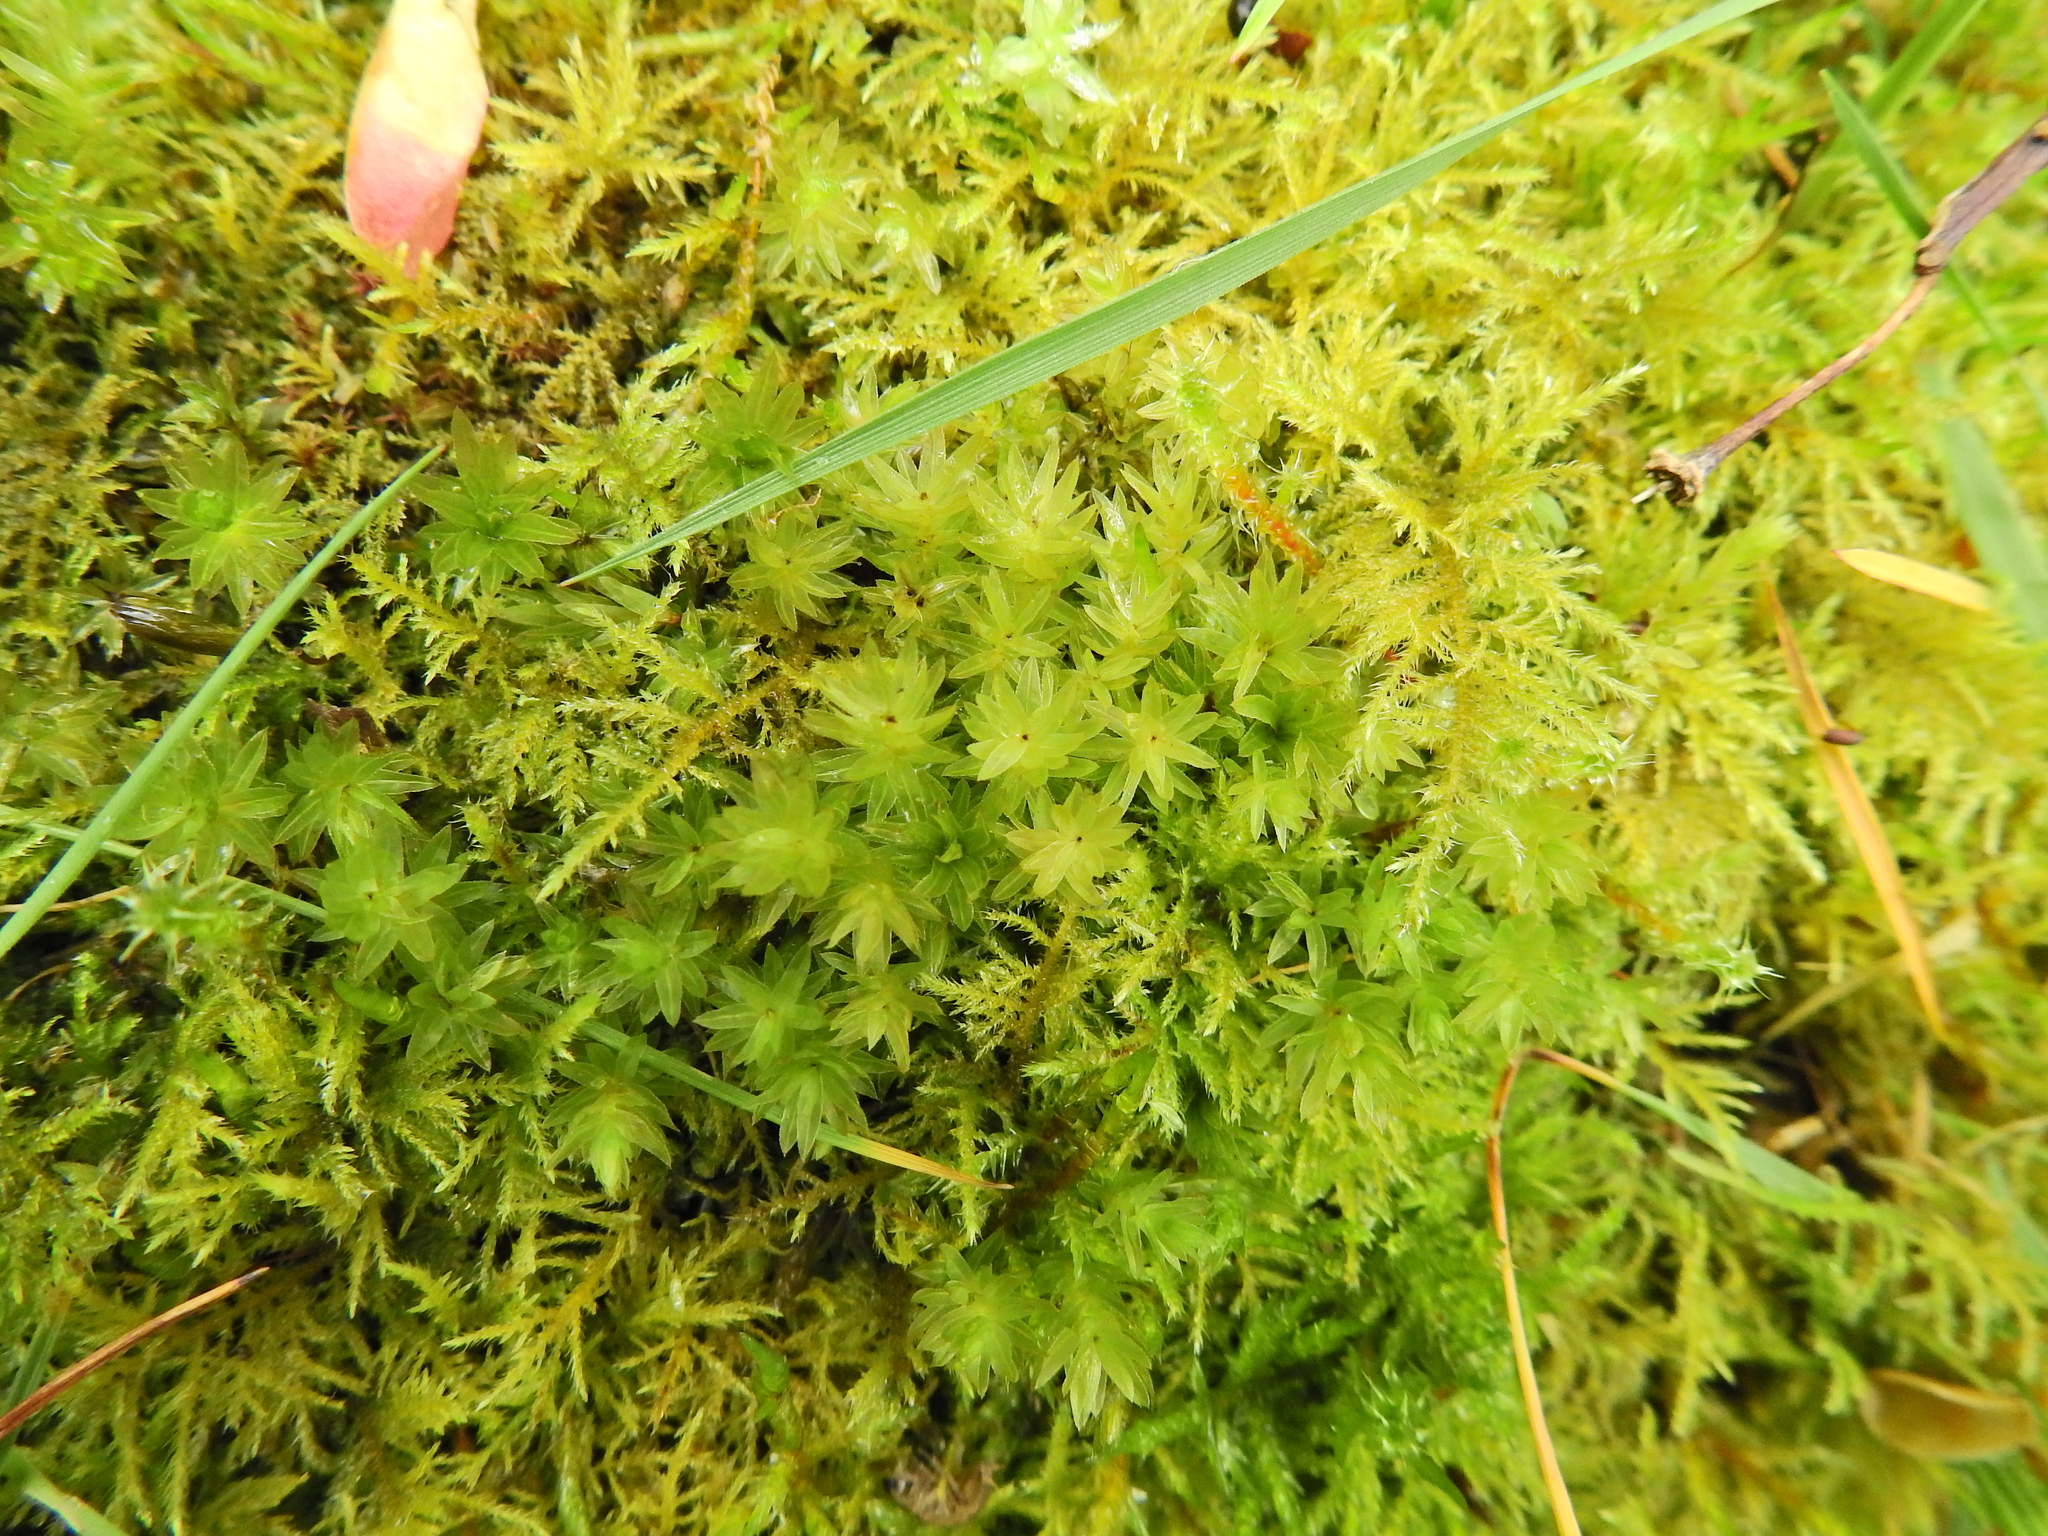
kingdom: Plantae
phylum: Bryophyta
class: Bryopsida
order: Bryales
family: Mniaceae
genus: Mnium
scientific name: Mnium hornum
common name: Swan's-neck leafy moss
